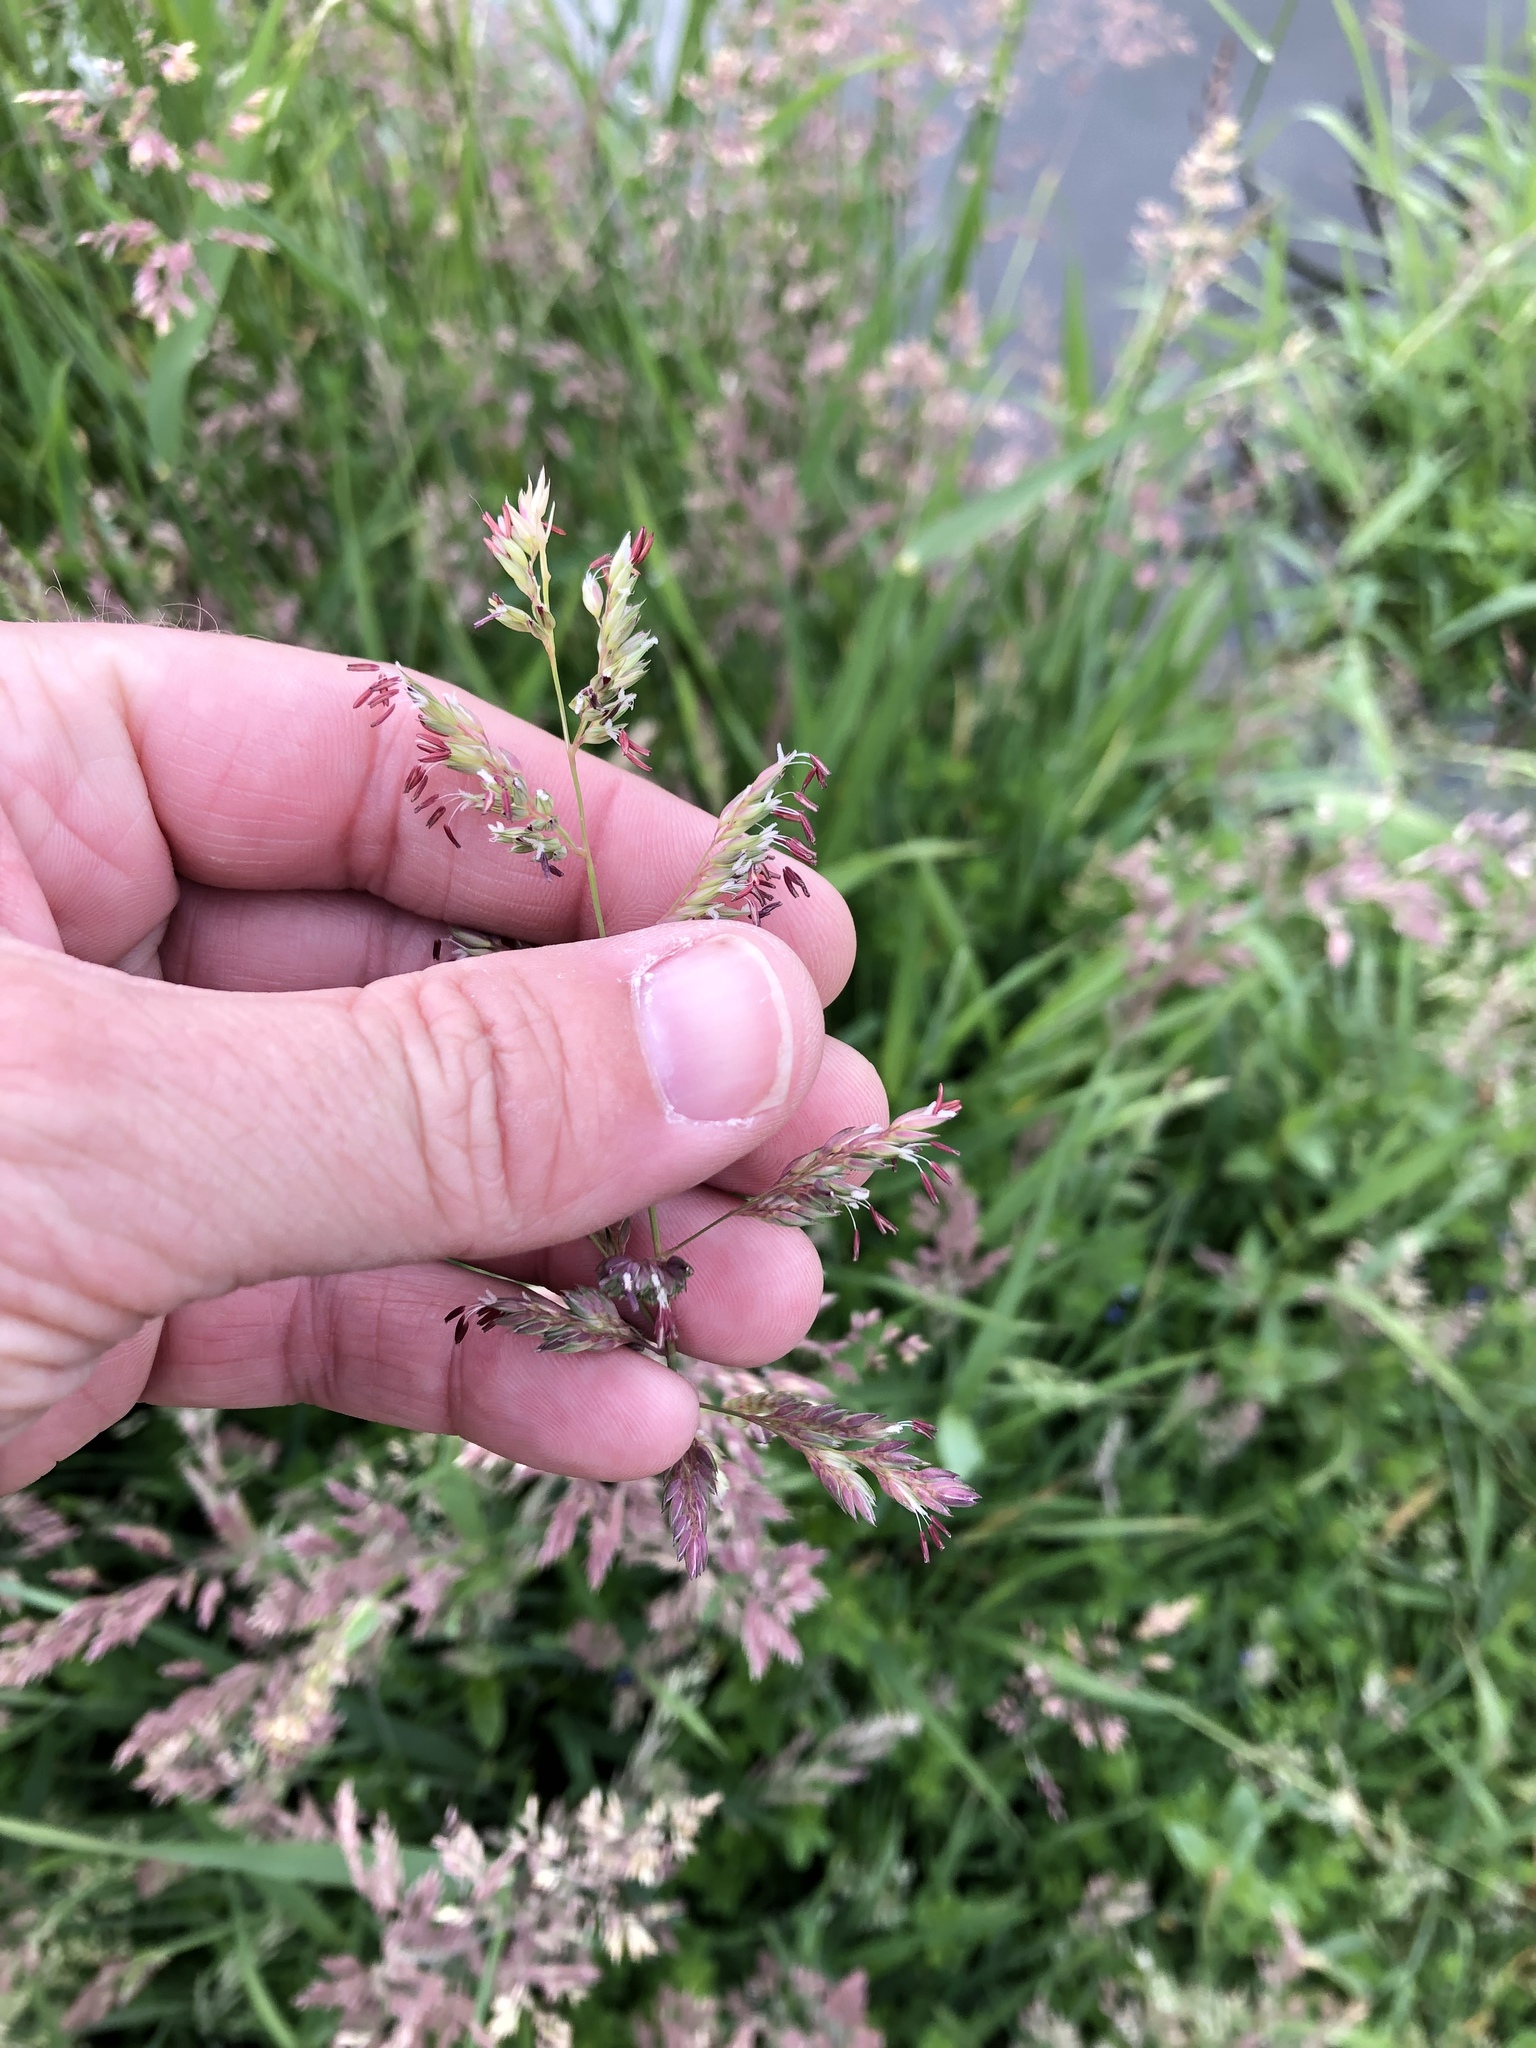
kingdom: Plantae
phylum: Tracheophyta
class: Liliopsida
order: Poales
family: Poaceae
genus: Phalaris
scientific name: Phalaris arundinacea
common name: Reed canary-grass
